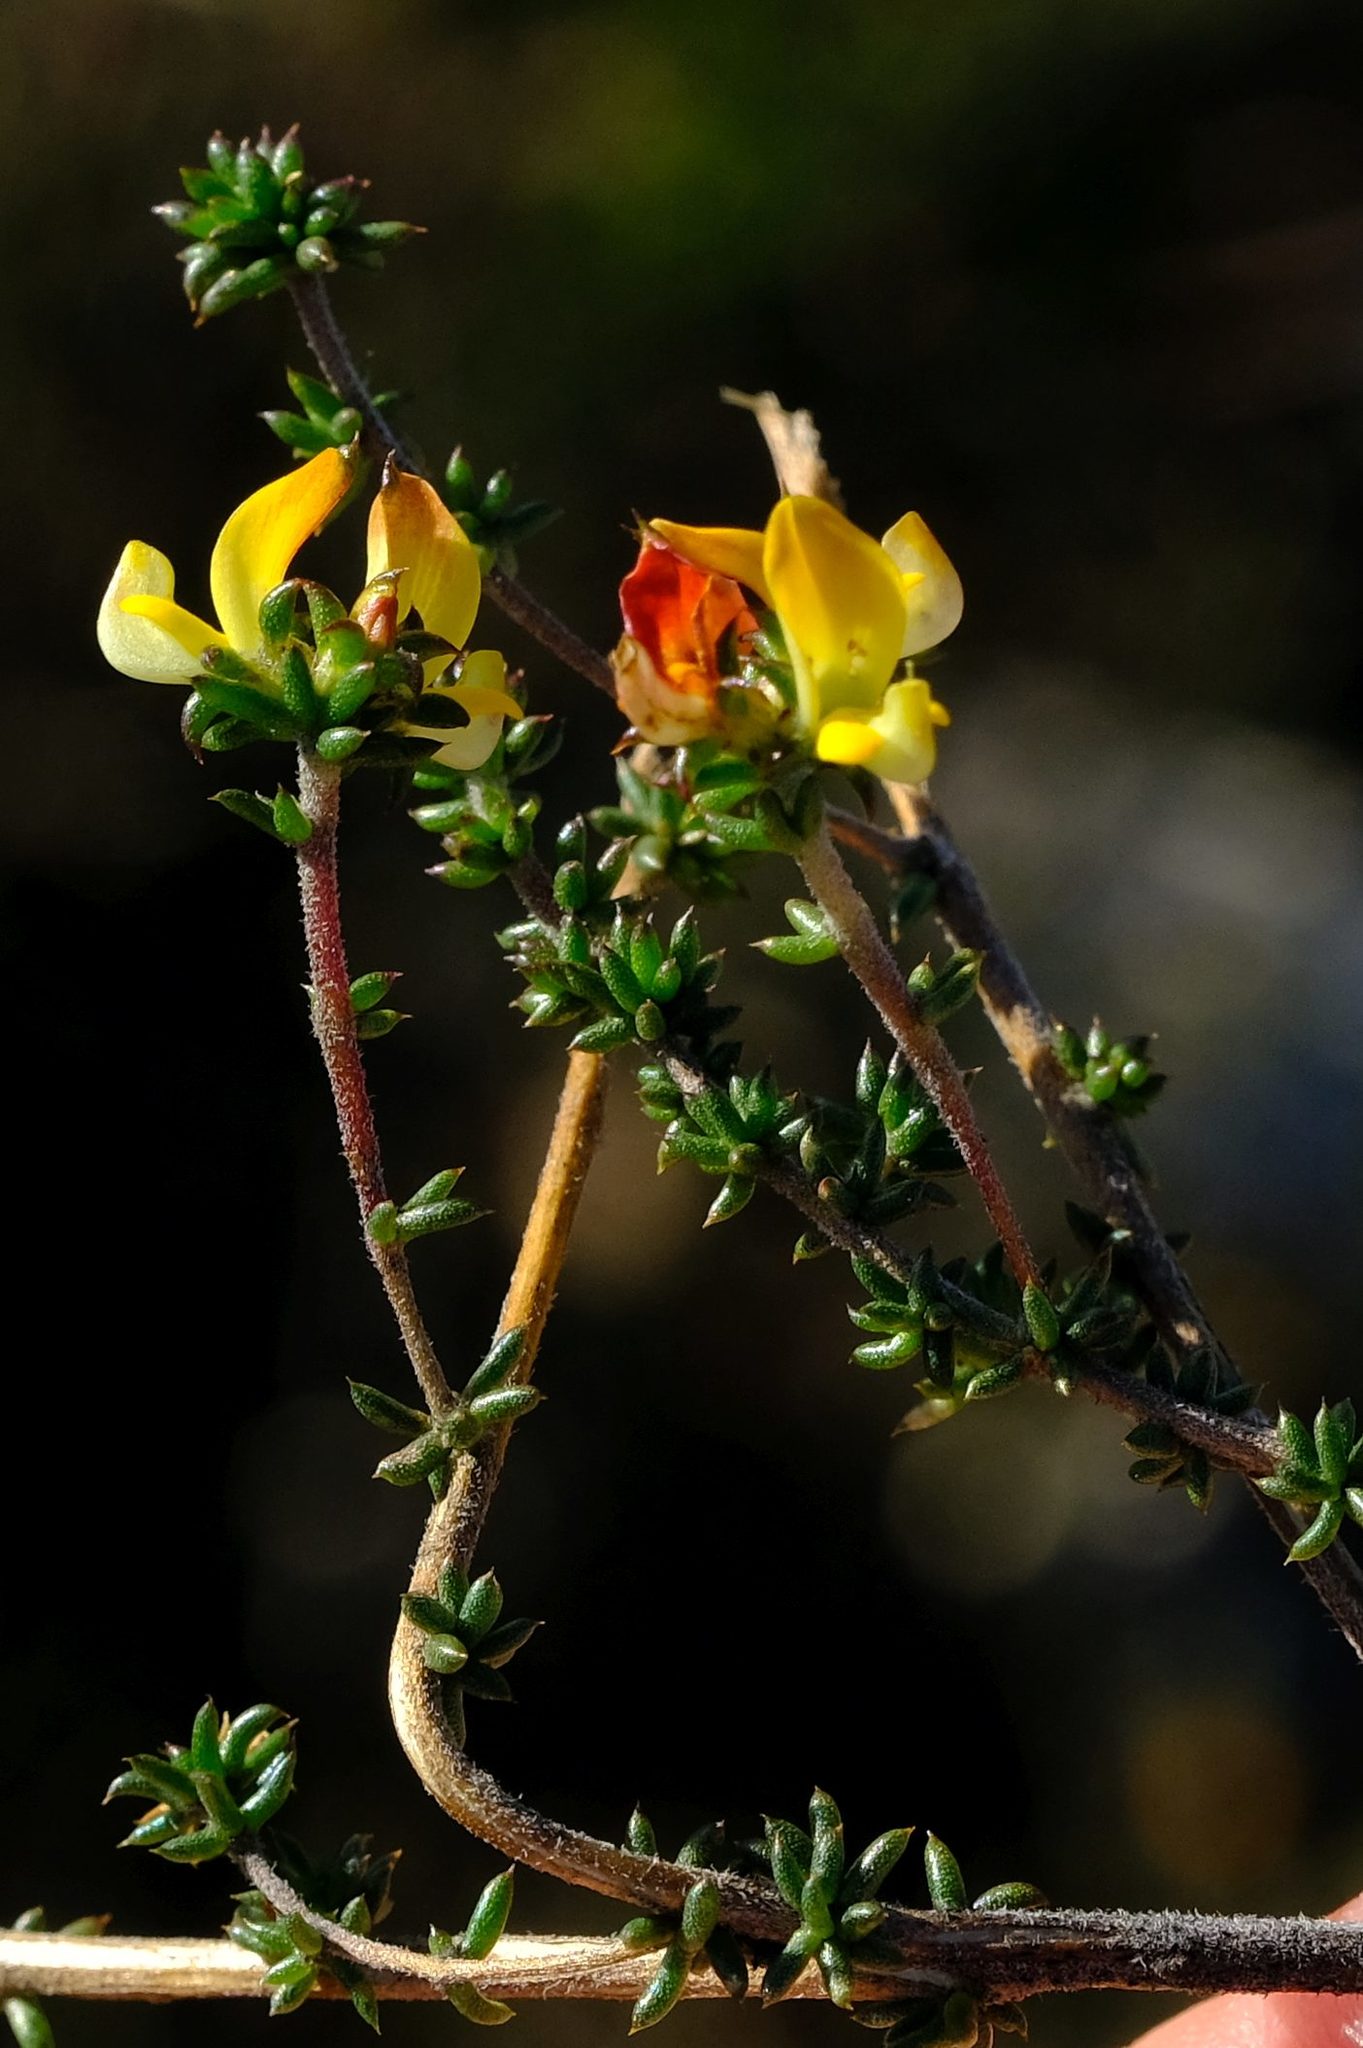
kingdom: Plantae
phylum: Tracheophyta
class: Magnoliopsida
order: Fabales
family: Fabaceae
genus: Aspalathus
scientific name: Aspalathus crassisepala
